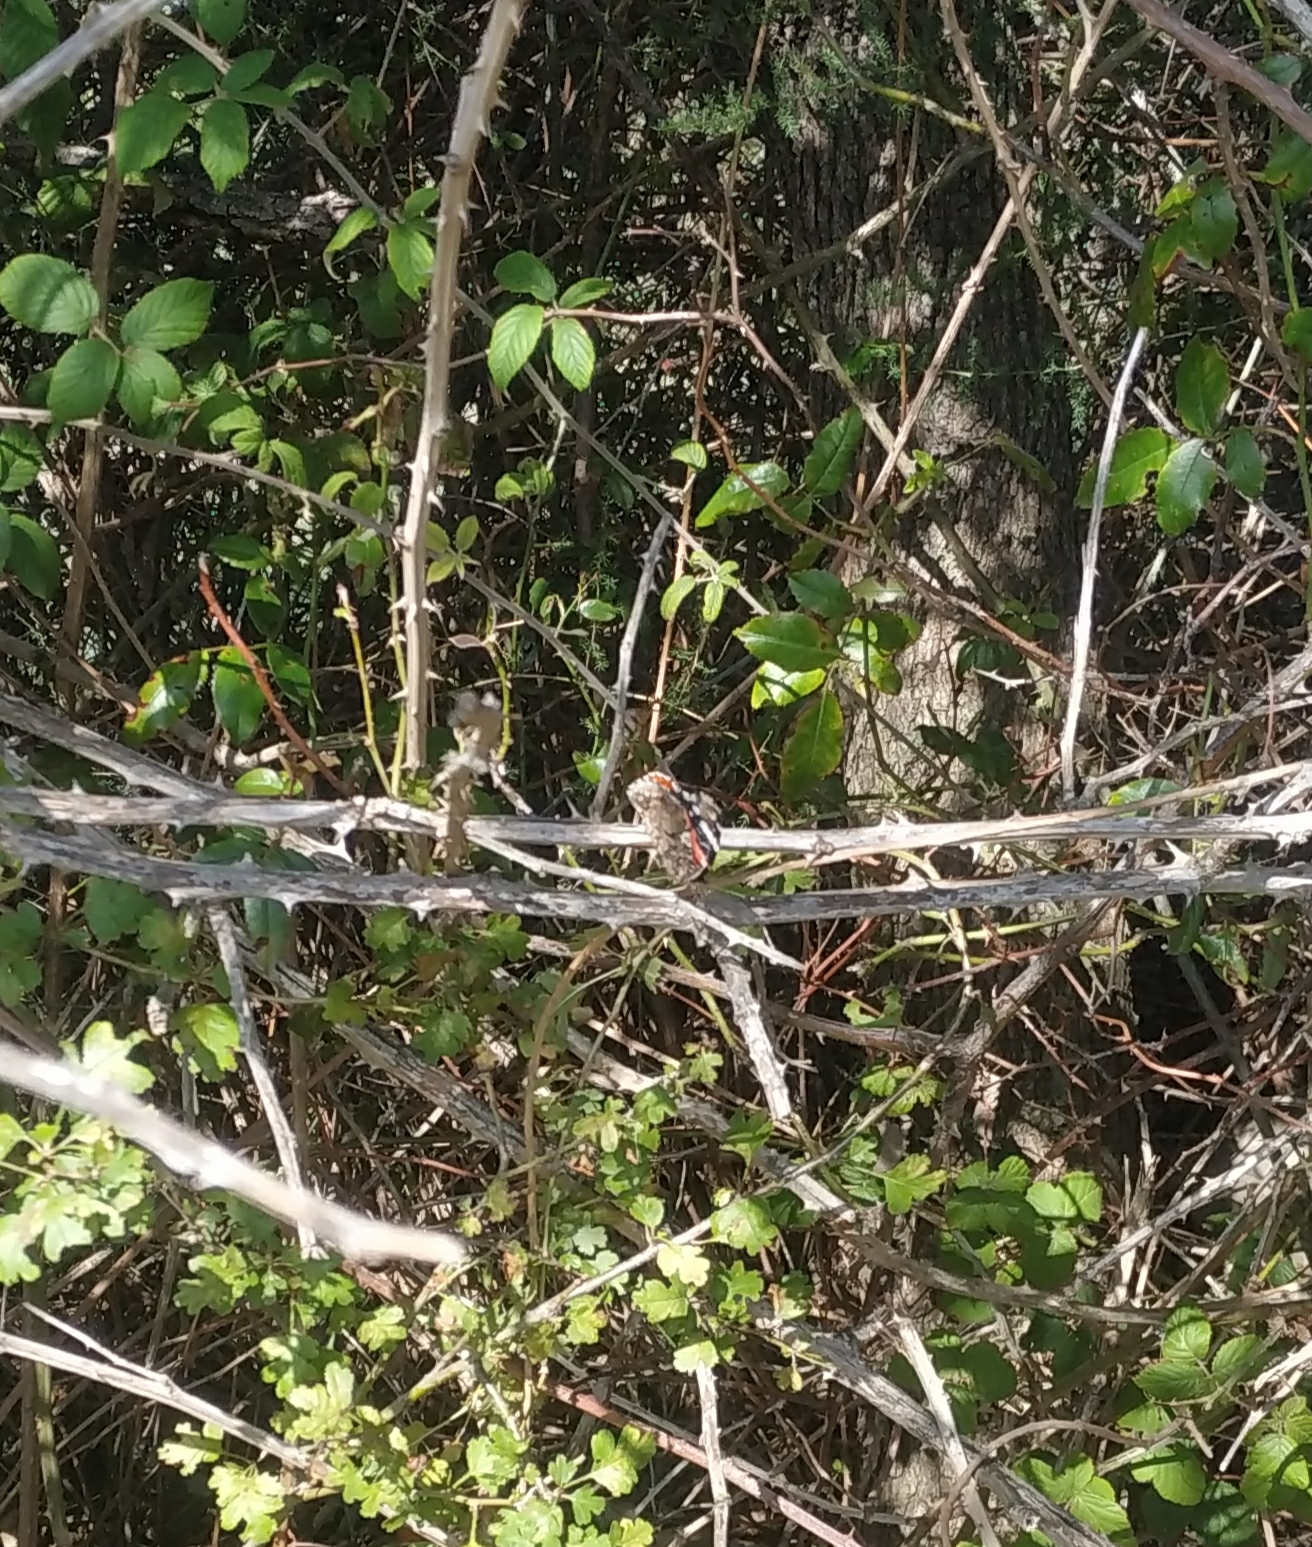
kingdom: Animalia
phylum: Arthropoda
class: Insecta
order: Lepidoptera
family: Nymphalidae
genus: Vanessa
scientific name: Vanessa atalanta
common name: Red admiral
